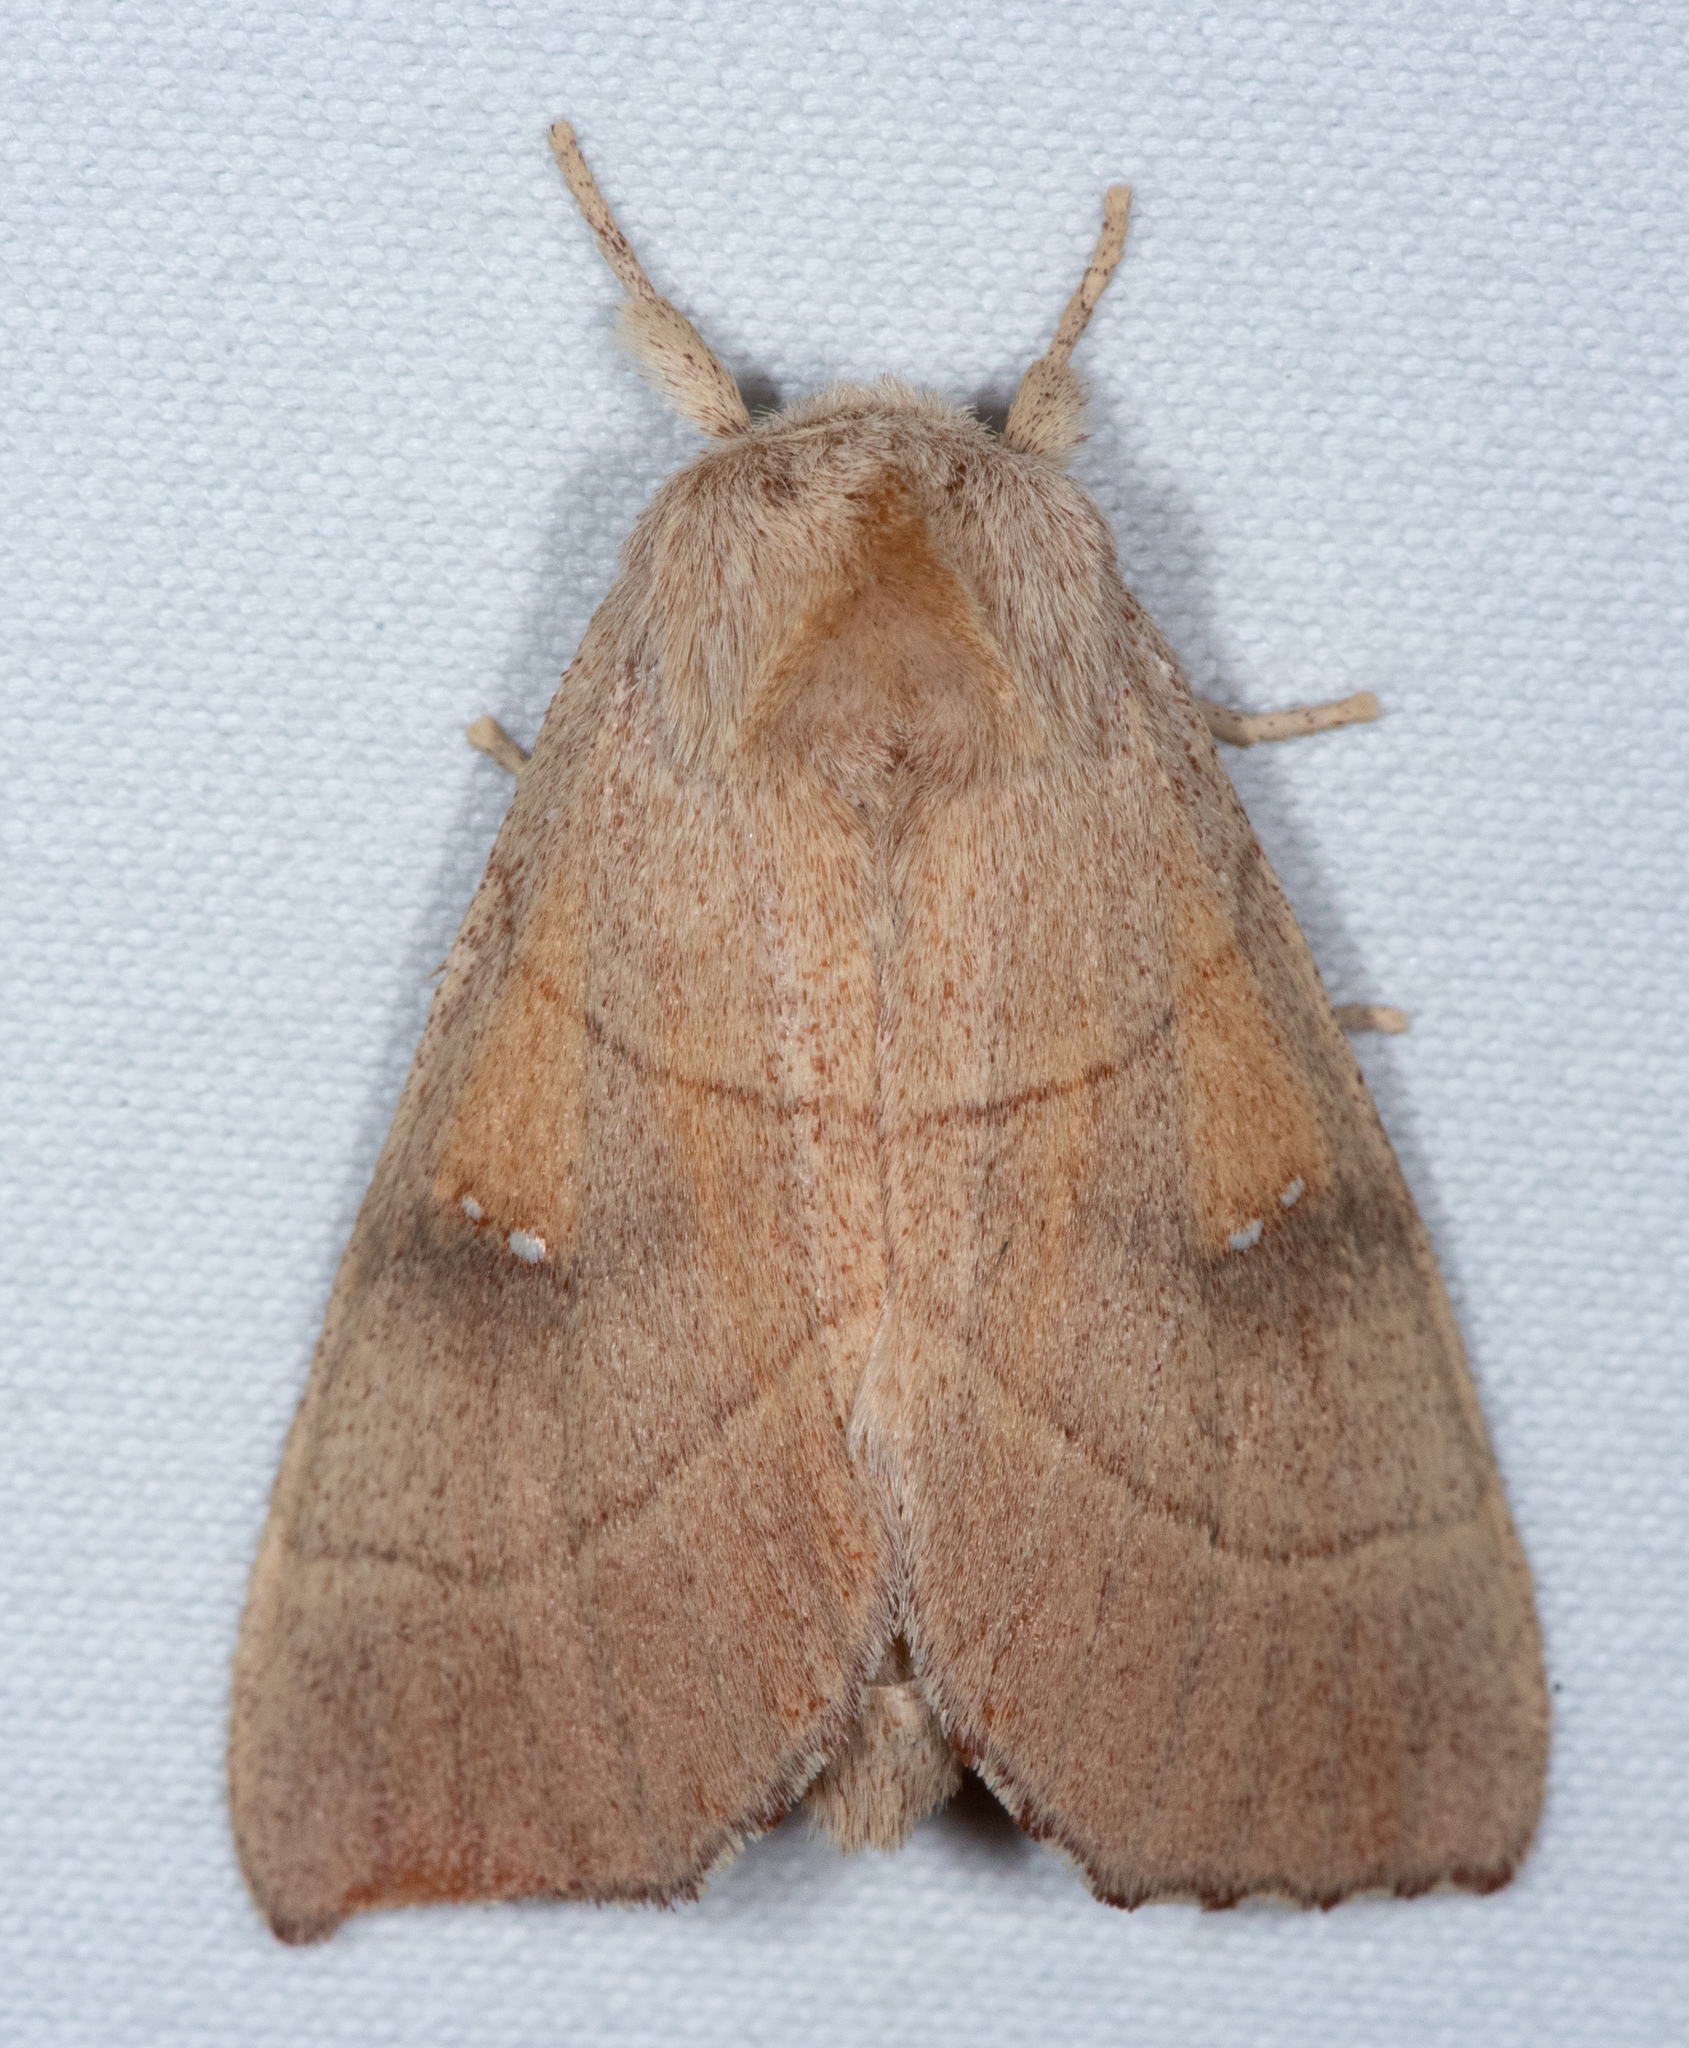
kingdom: Animalia
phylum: Arthropoda
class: Insecta
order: Lepidoptera
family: Notodontidae
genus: Nadata
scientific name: Nadata gibbosa
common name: White-dotted prominent
